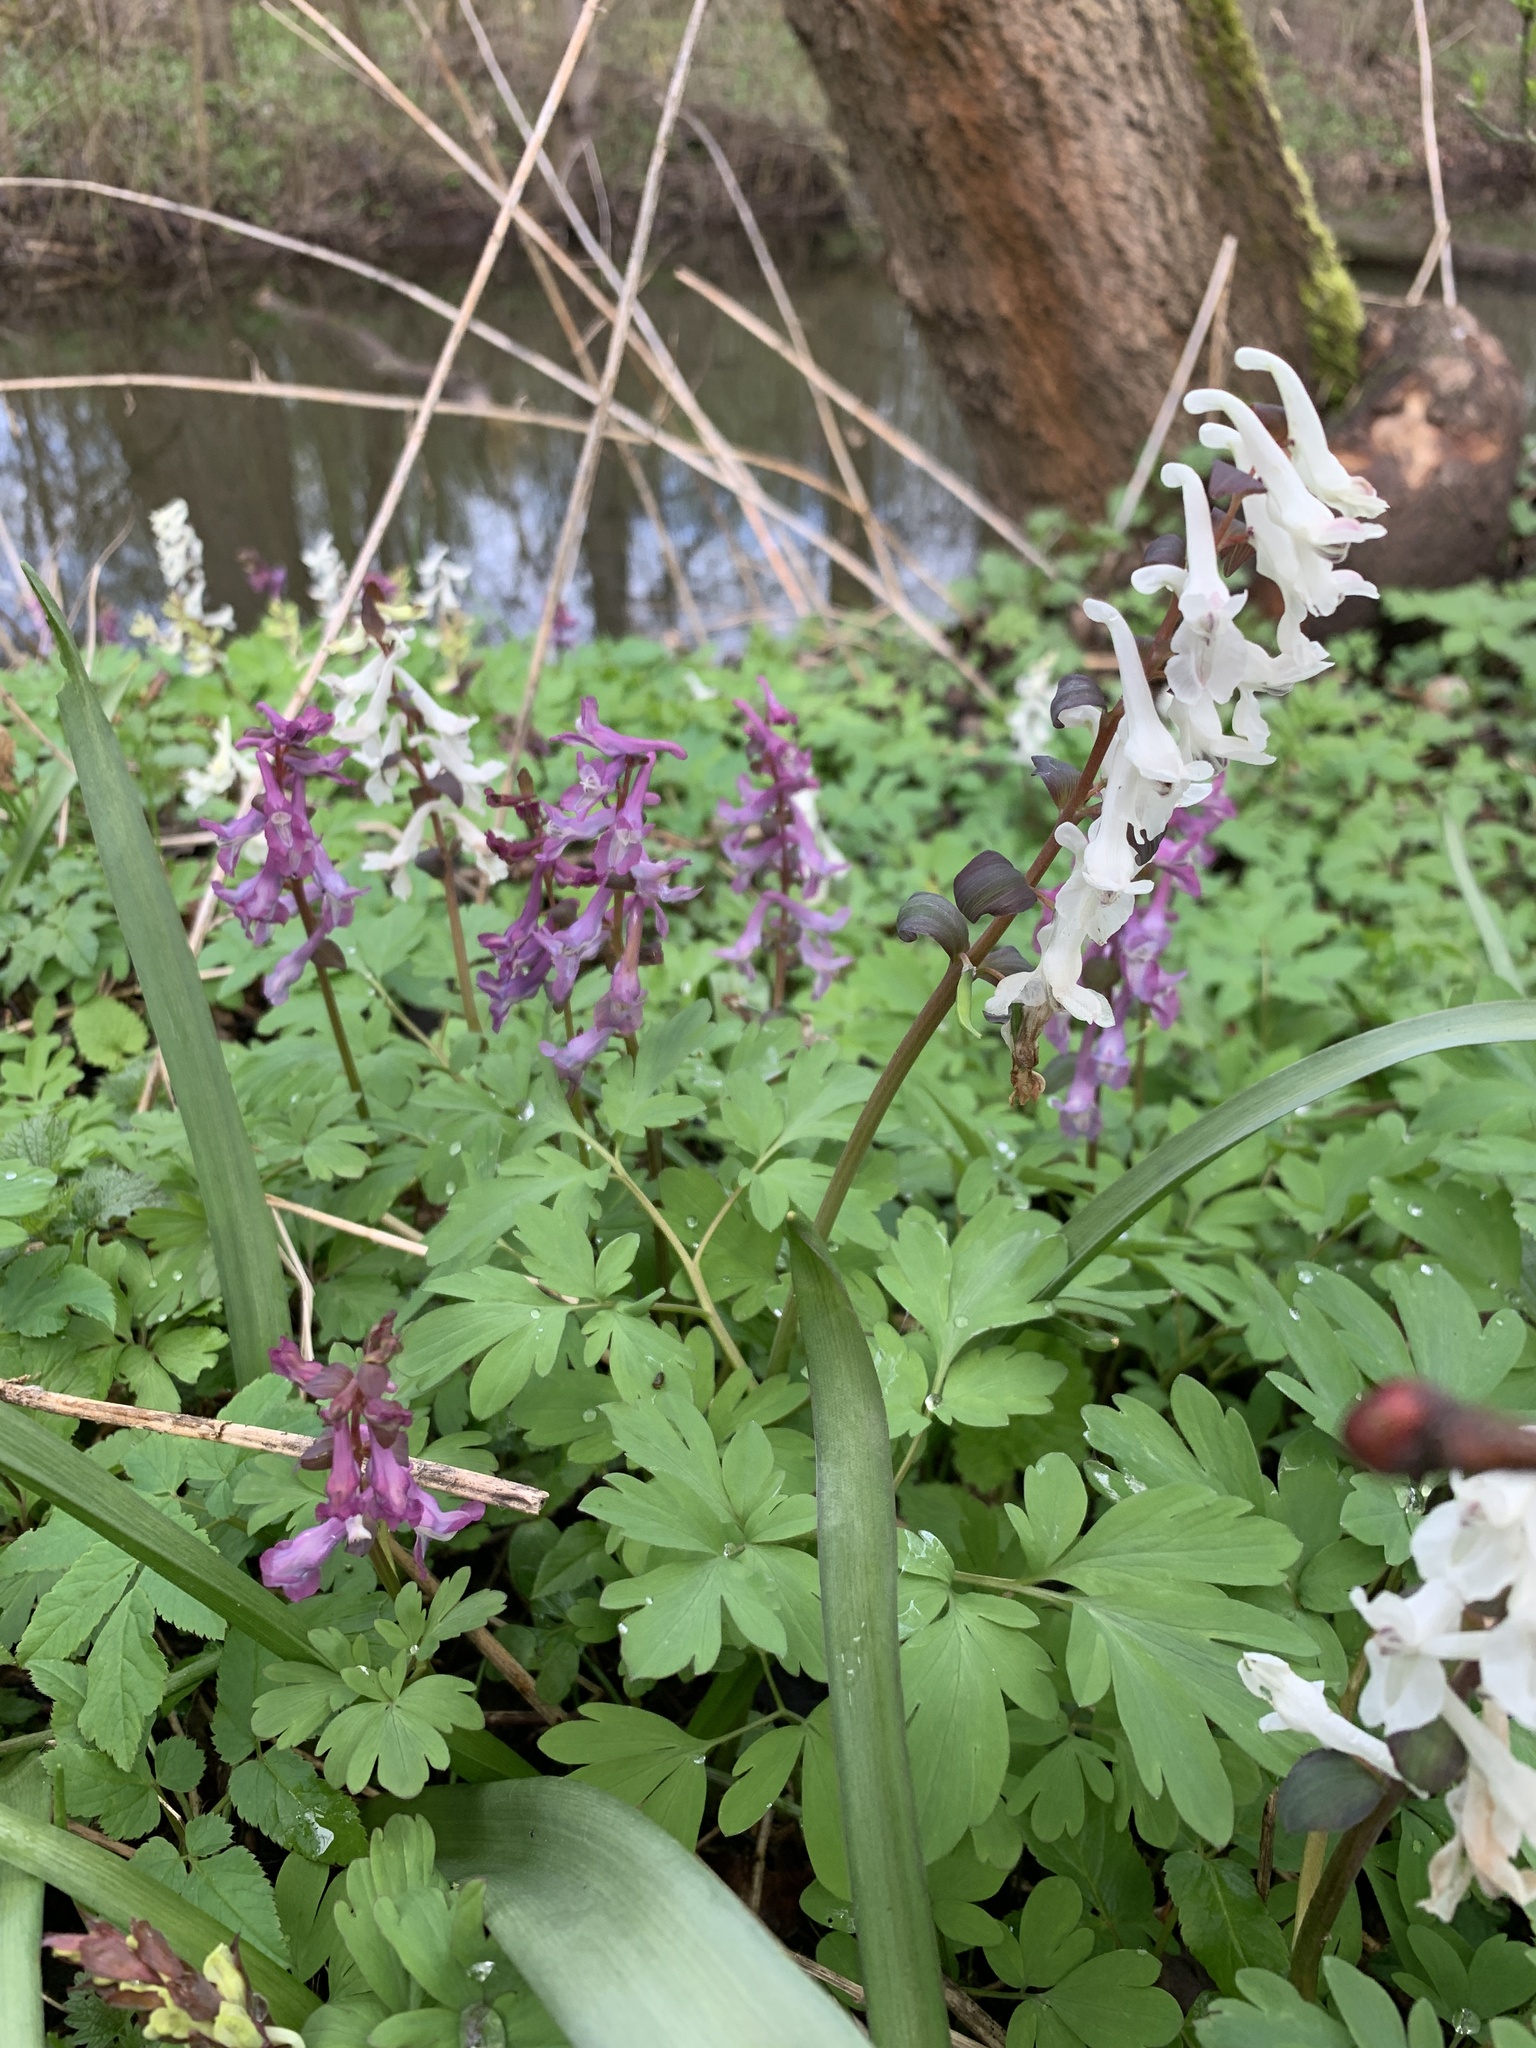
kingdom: Plantae
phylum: Tracheophyta
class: Magnoliopsida
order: Ranunculales
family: Papaveraceae
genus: Corydalis
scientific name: Corydalis cava
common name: Hollowroot
